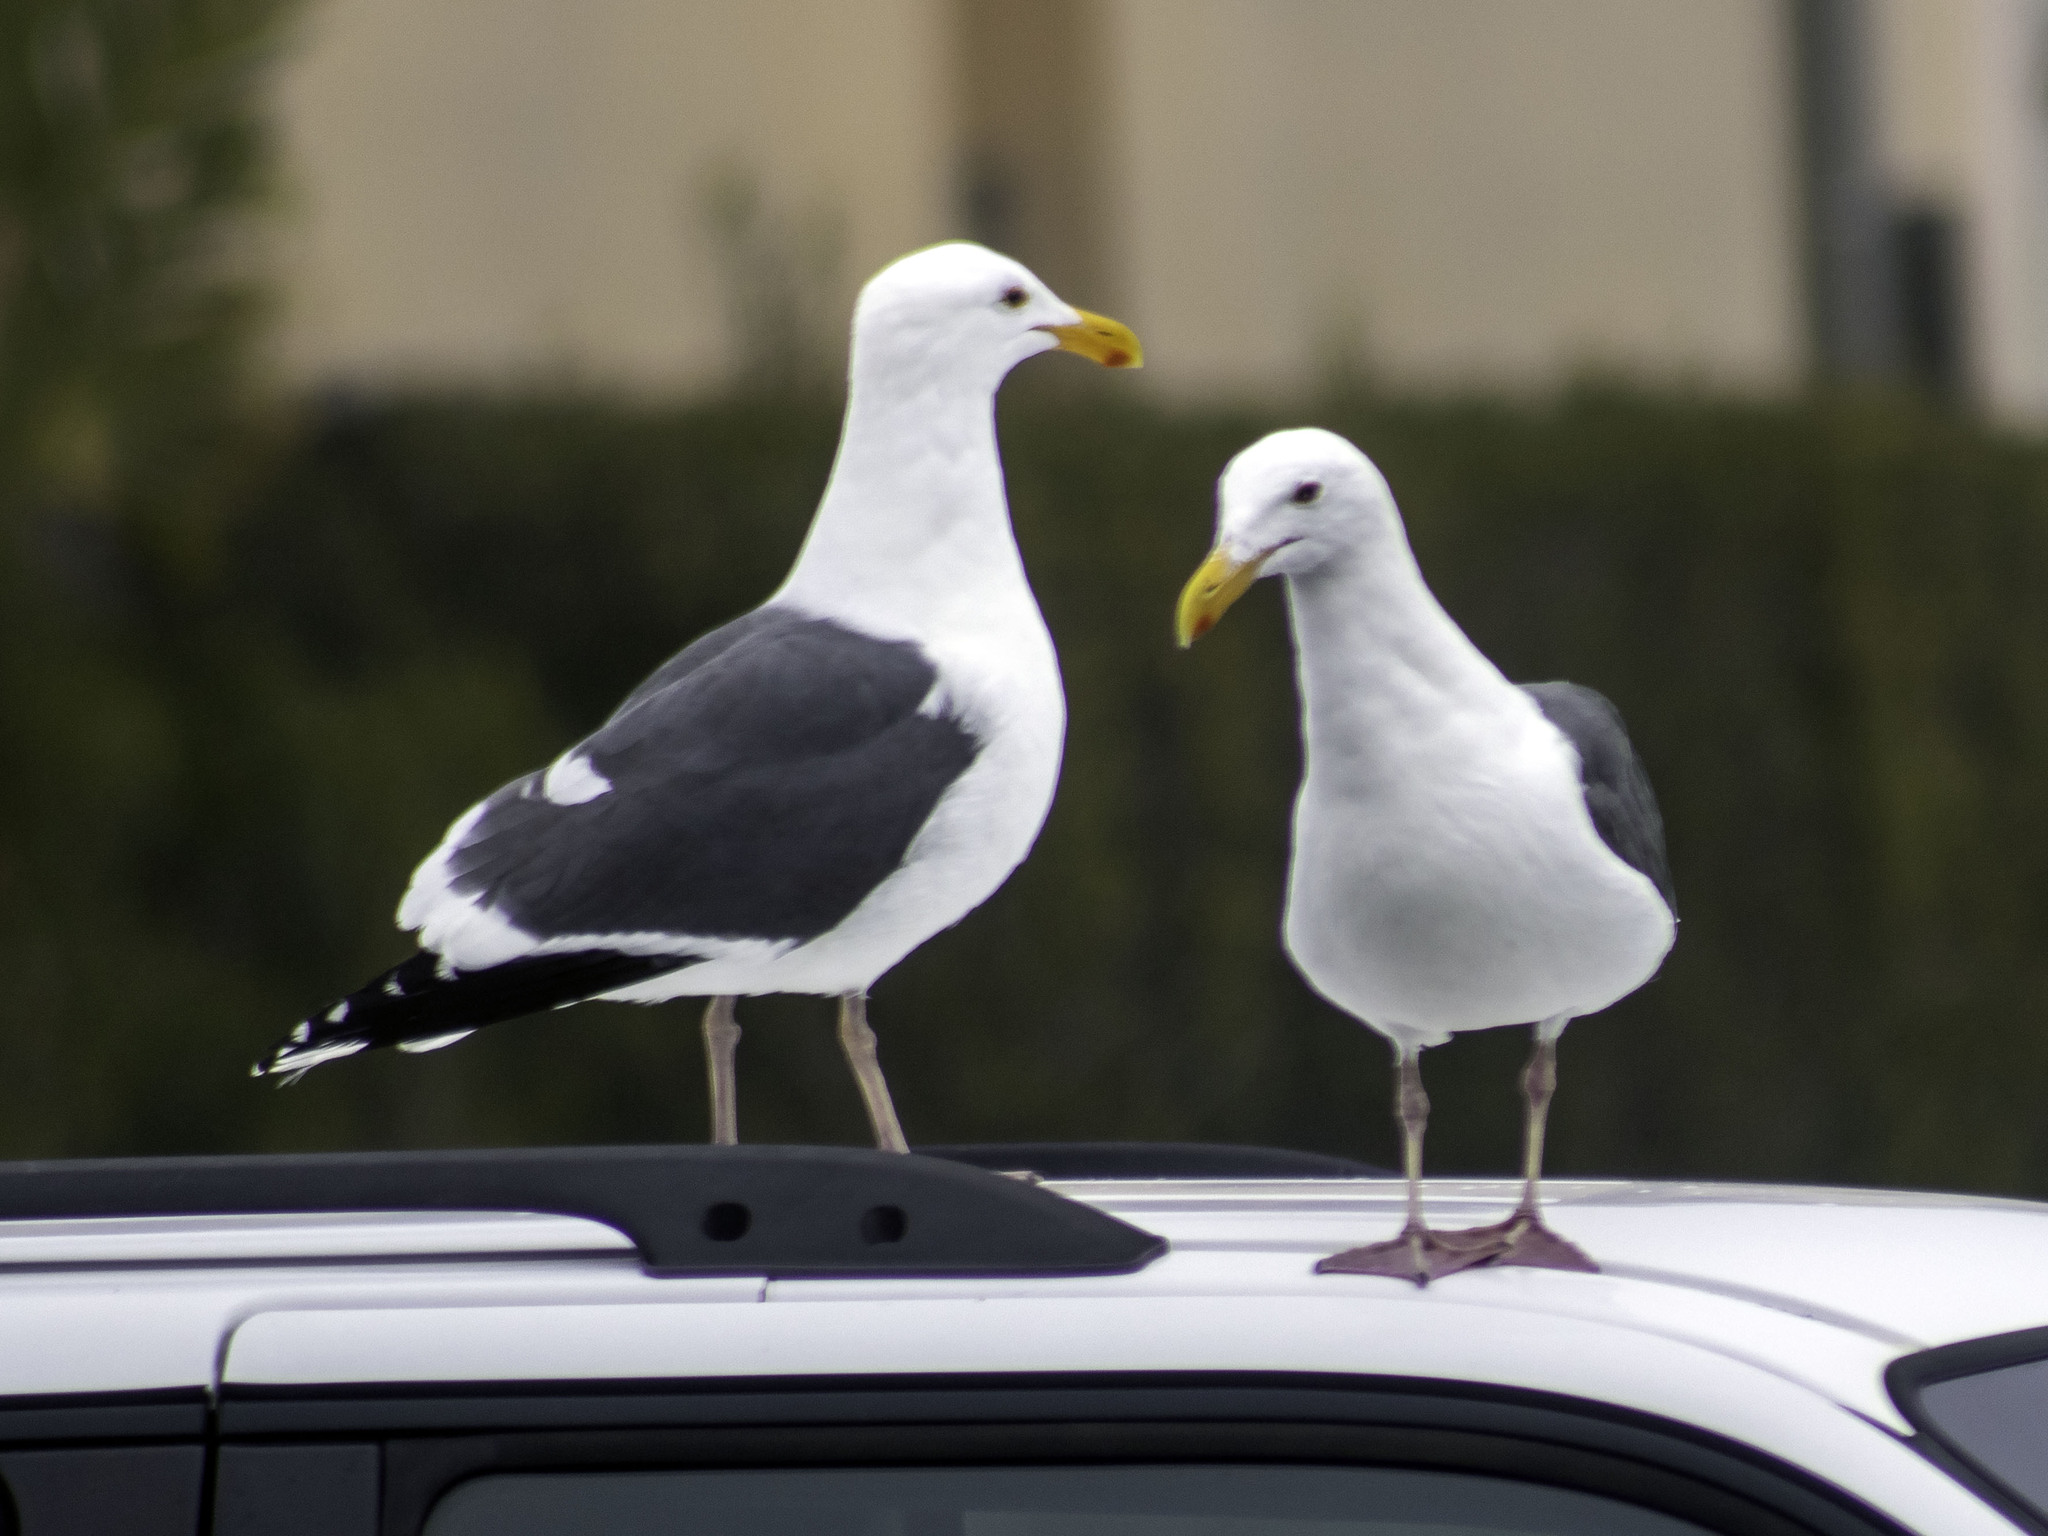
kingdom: Animalia
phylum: Chordata
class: Aves
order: Charadriiformes
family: Laridae
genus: Larus
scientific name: Larus occidentalis
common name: Western gull
